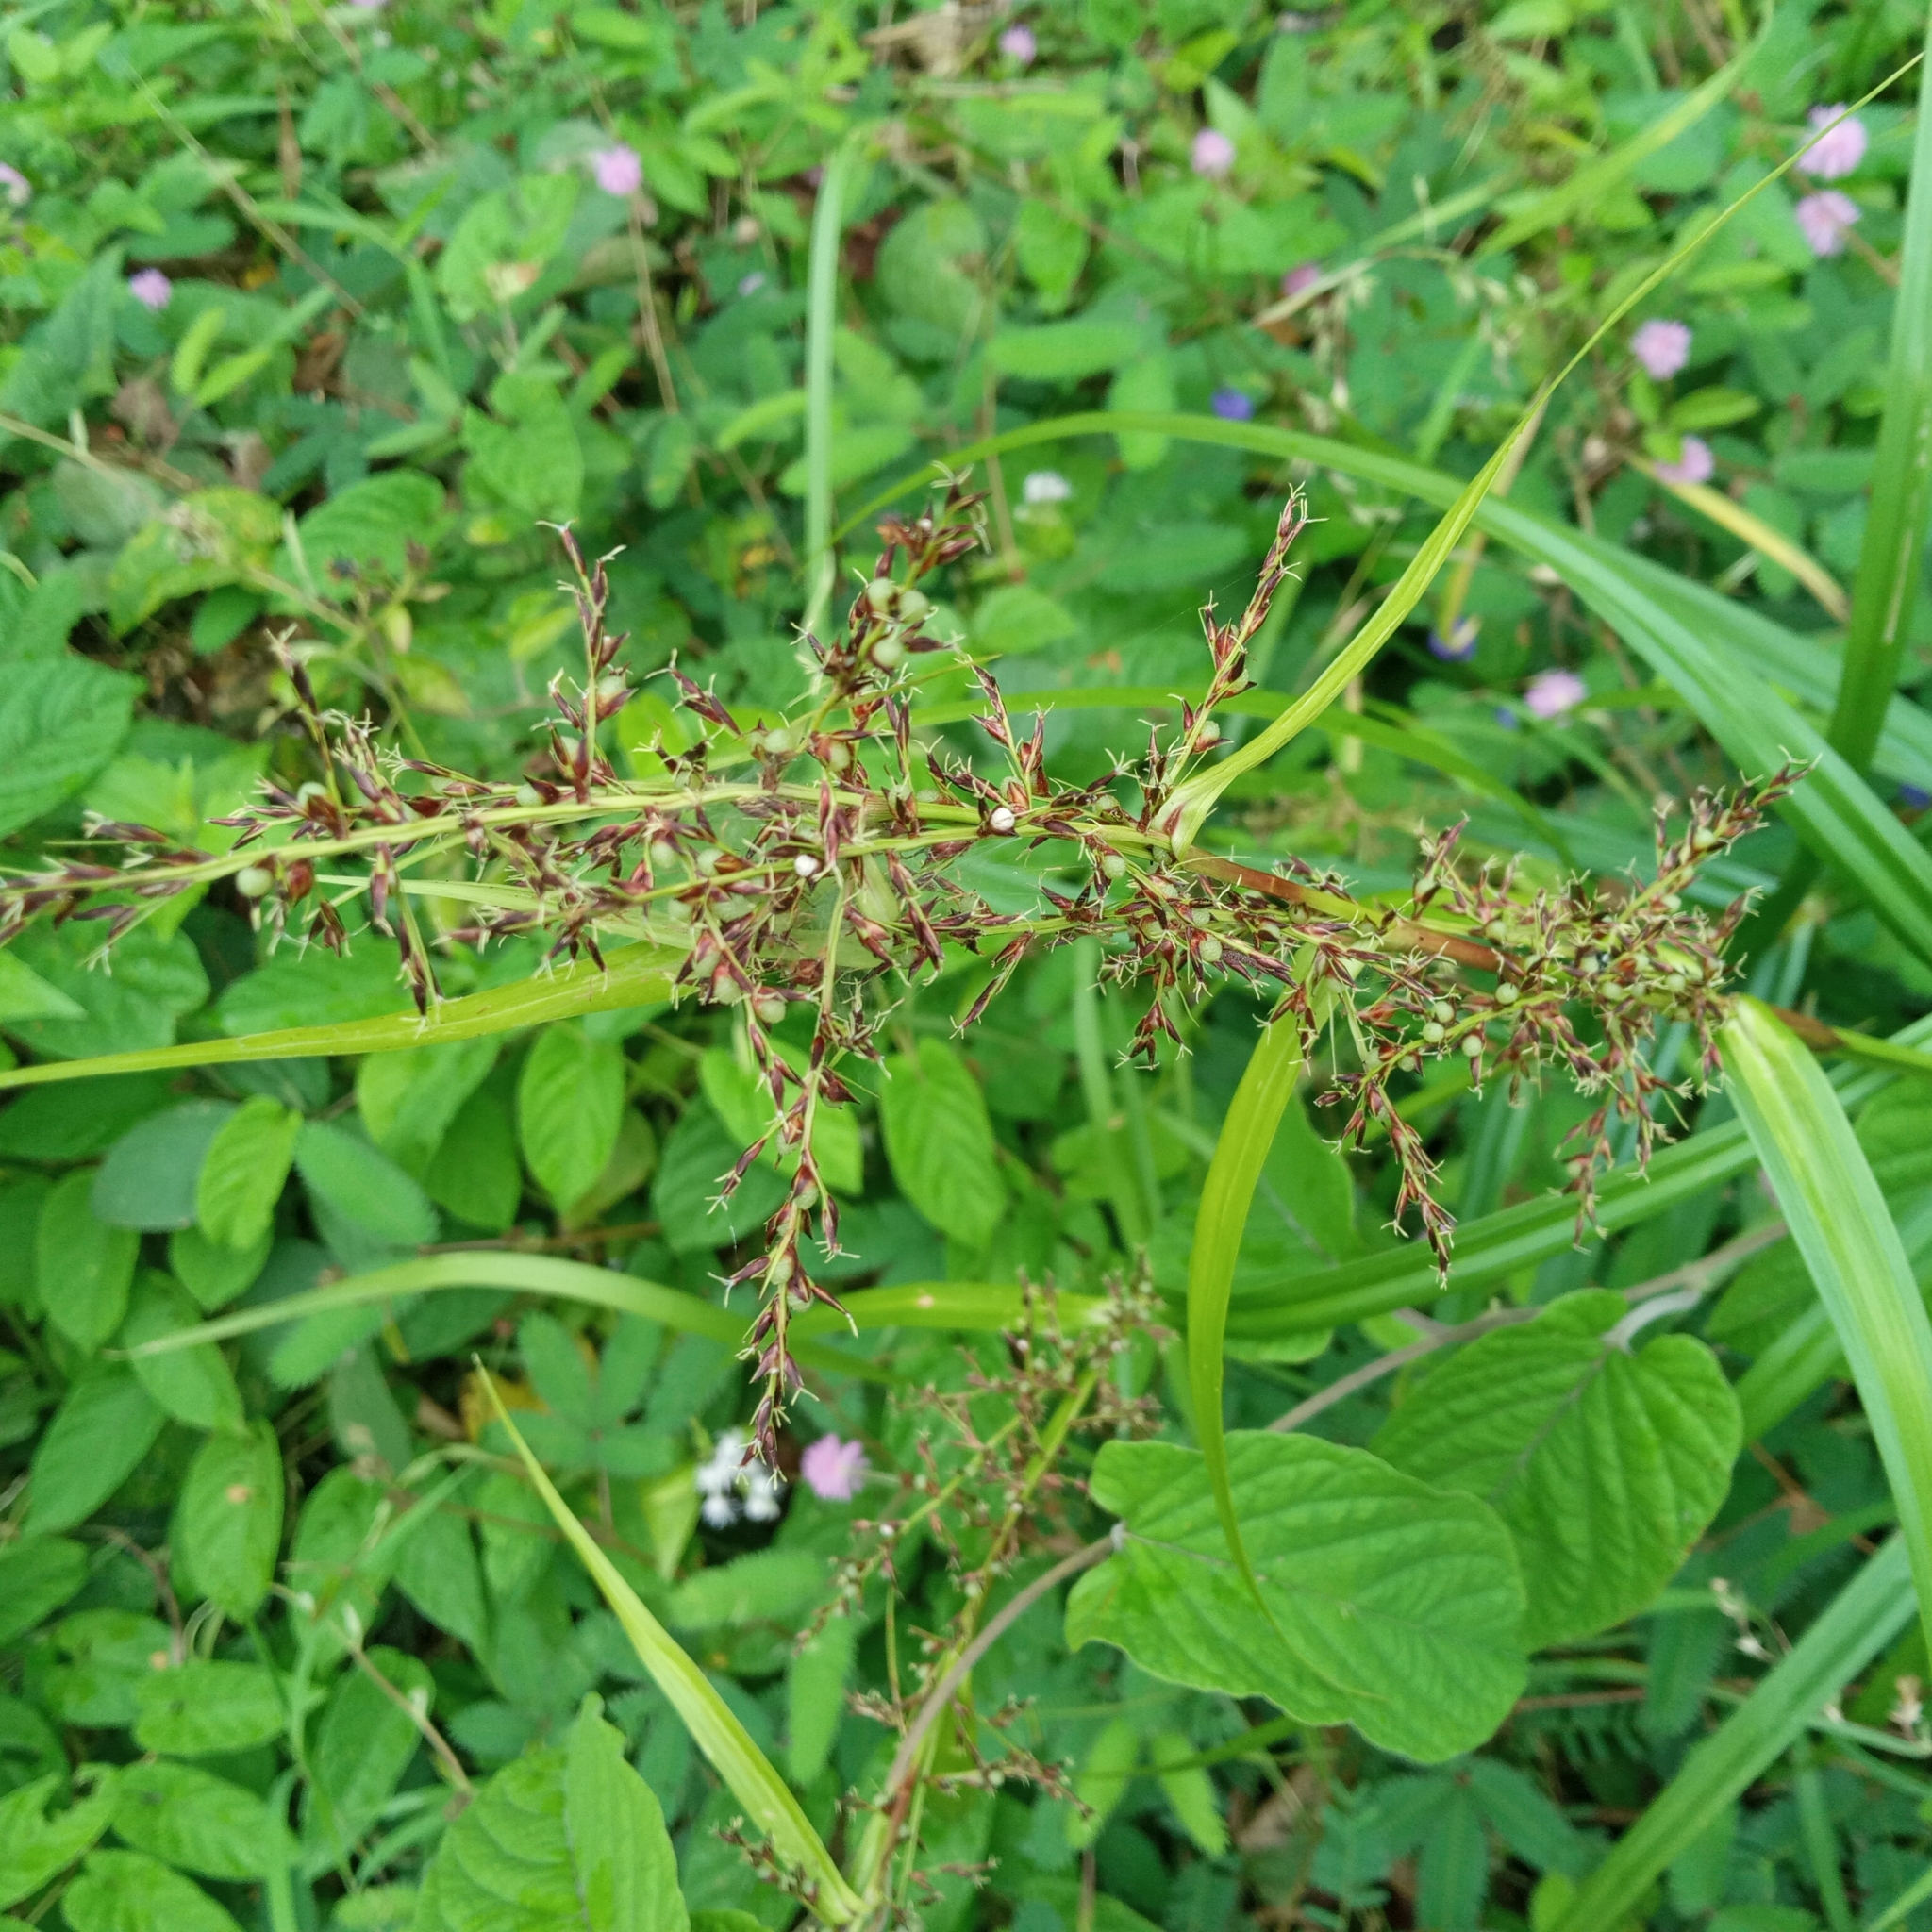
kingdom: Plantae
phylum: Tracheophyta
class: Liliopsida
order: Poales
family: Cyperaceae
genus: Scleria
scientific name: Scleria terrestris
